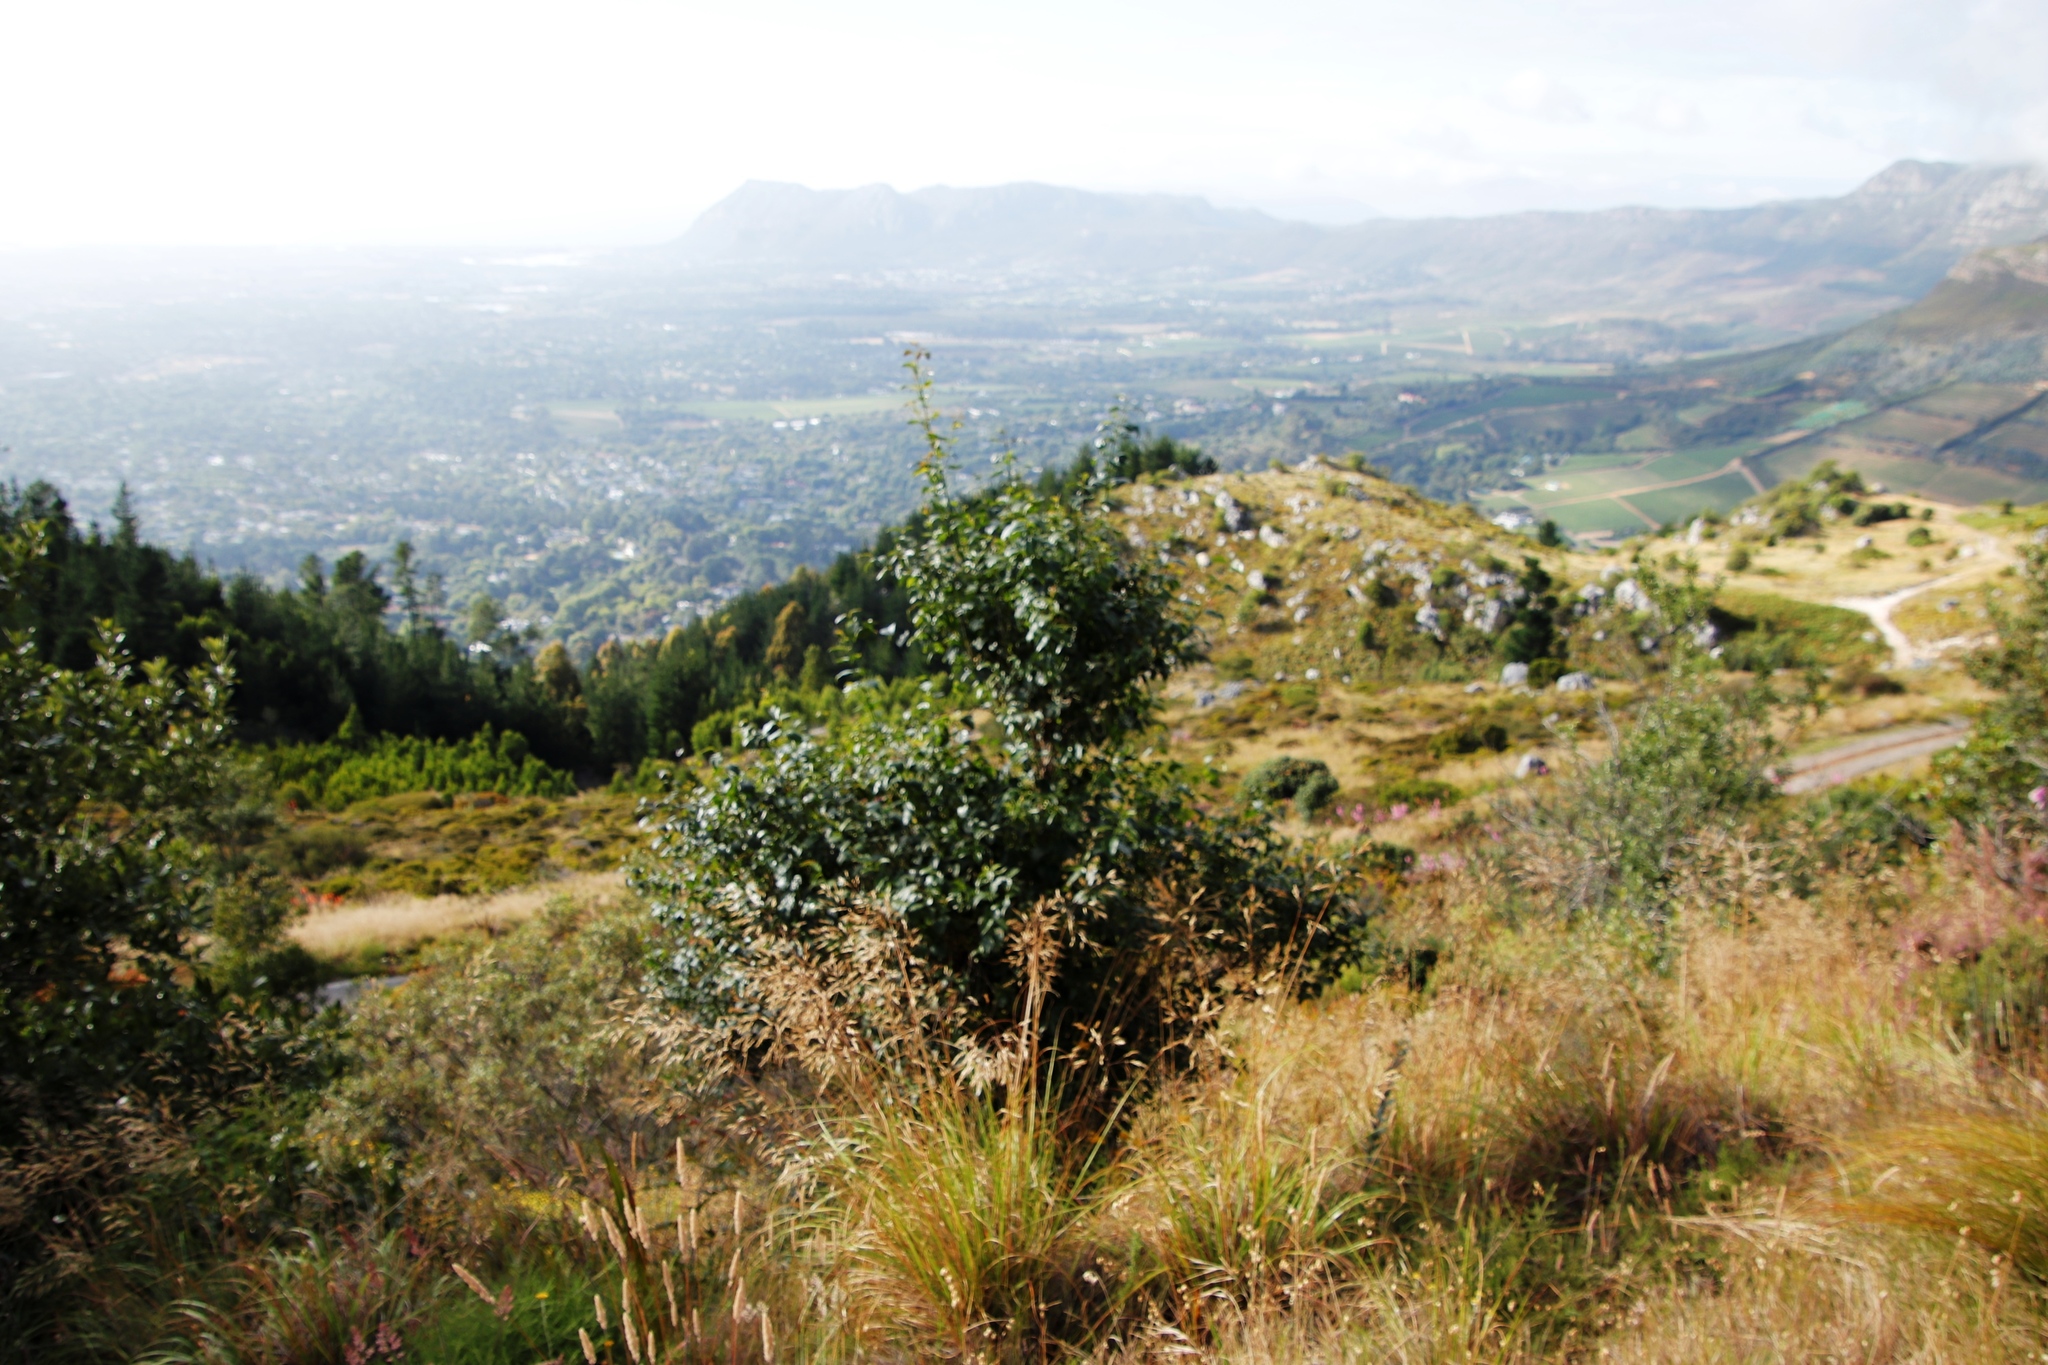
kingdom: Plantae
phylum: Tracheophyta
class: Magnoliopsida
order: Lamiales
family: Stilbaceae
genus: Halleria
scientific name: Halleria lucida
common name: Tree fuschia
